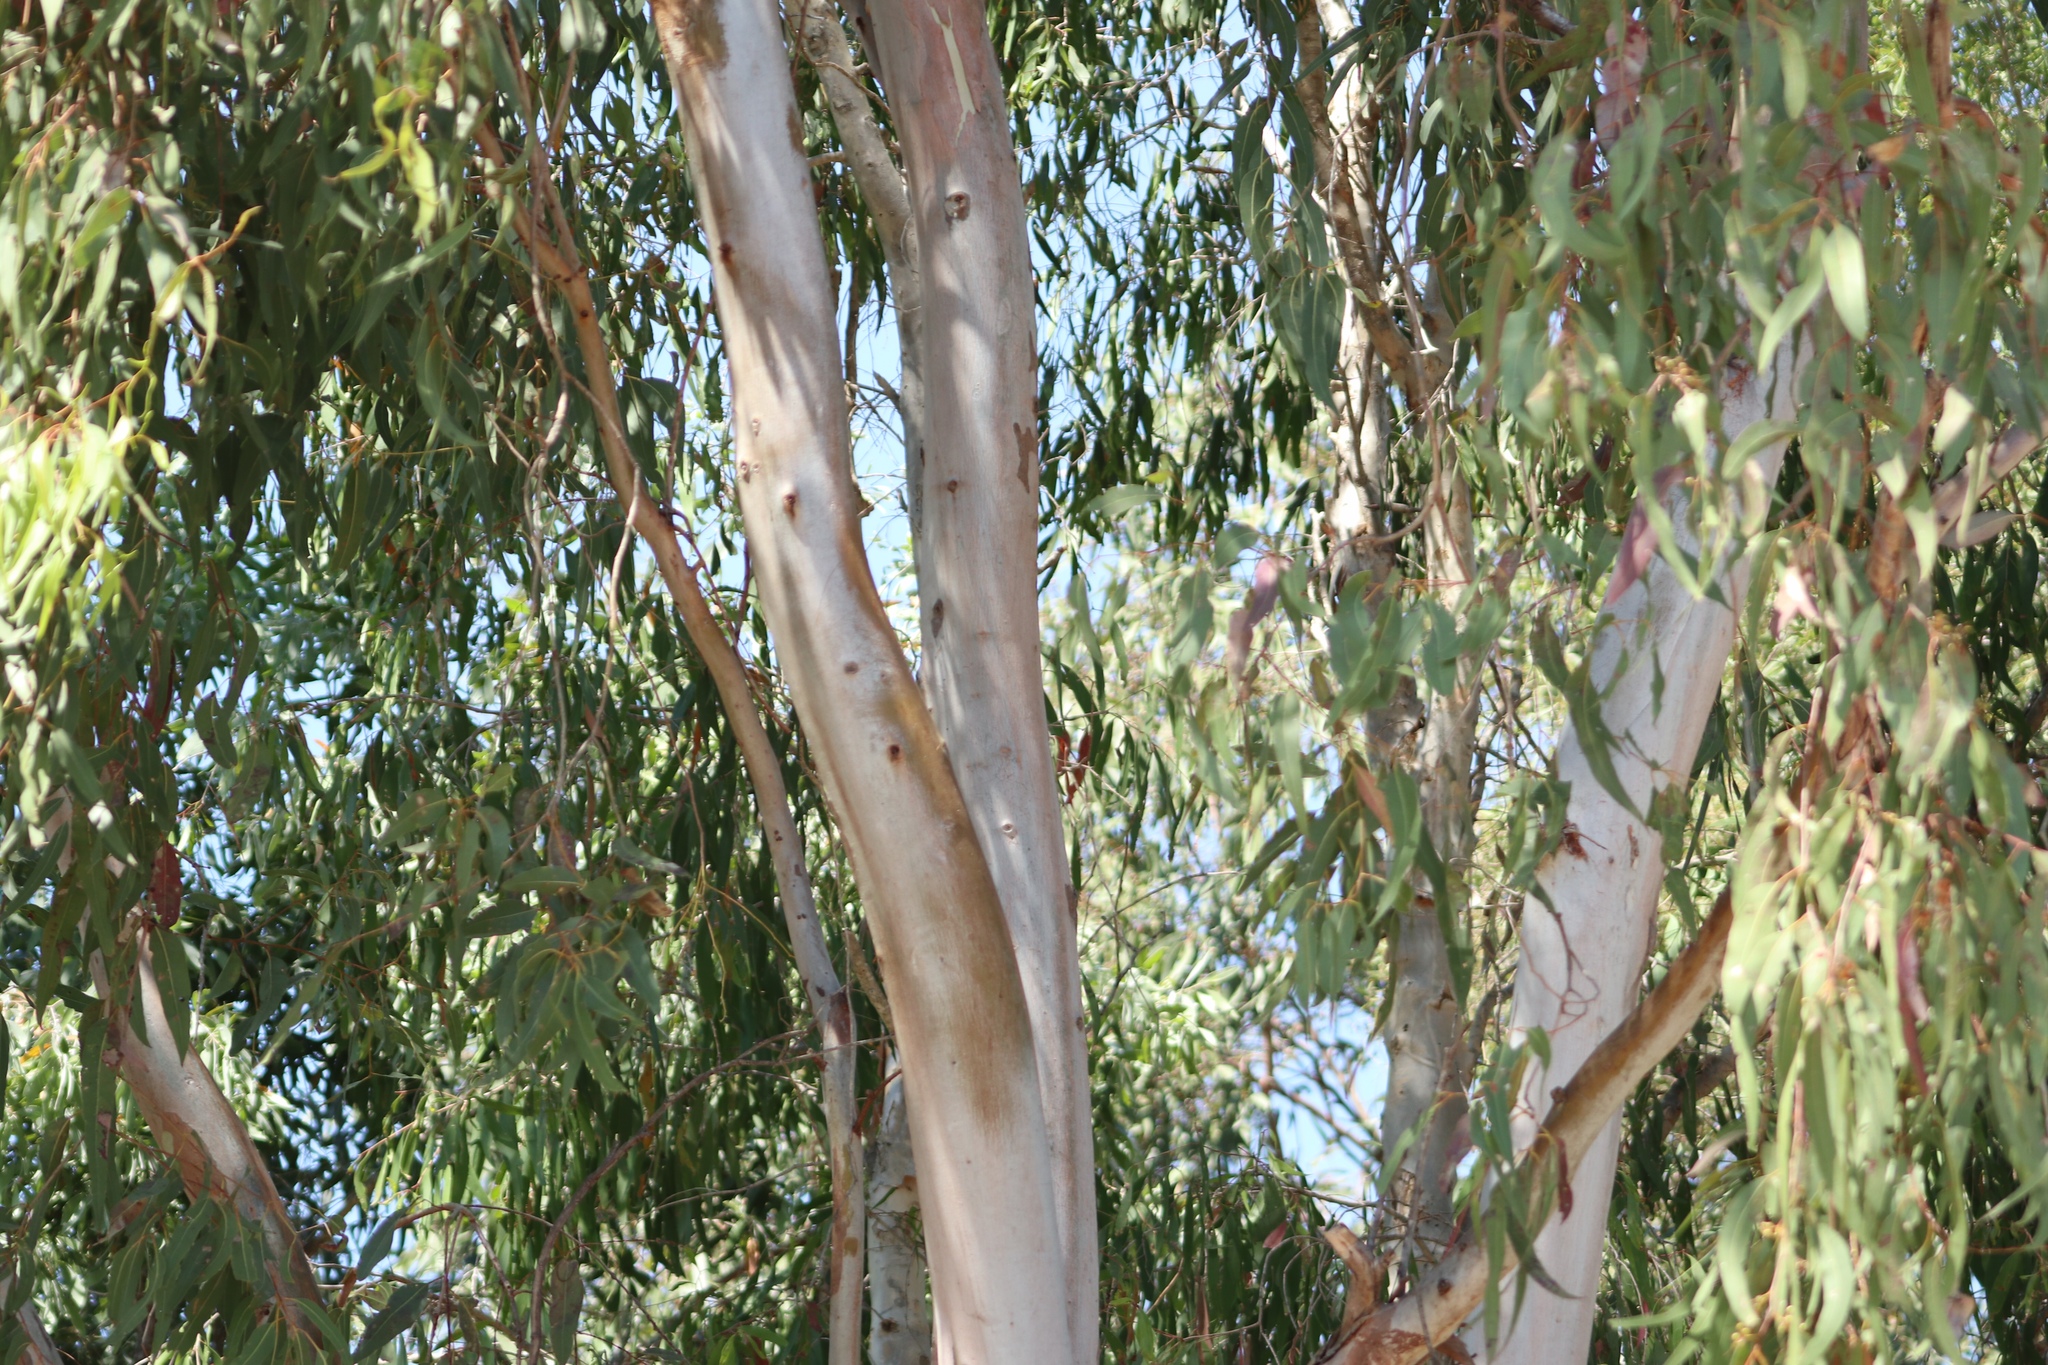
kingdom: Plantae
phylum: Tracheophyta
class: Magnoliopsida
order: Myrtales
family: Myrtaceae
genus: Eucalyptus
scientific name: Eucalyptus tereticornis
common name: Forest redgum
